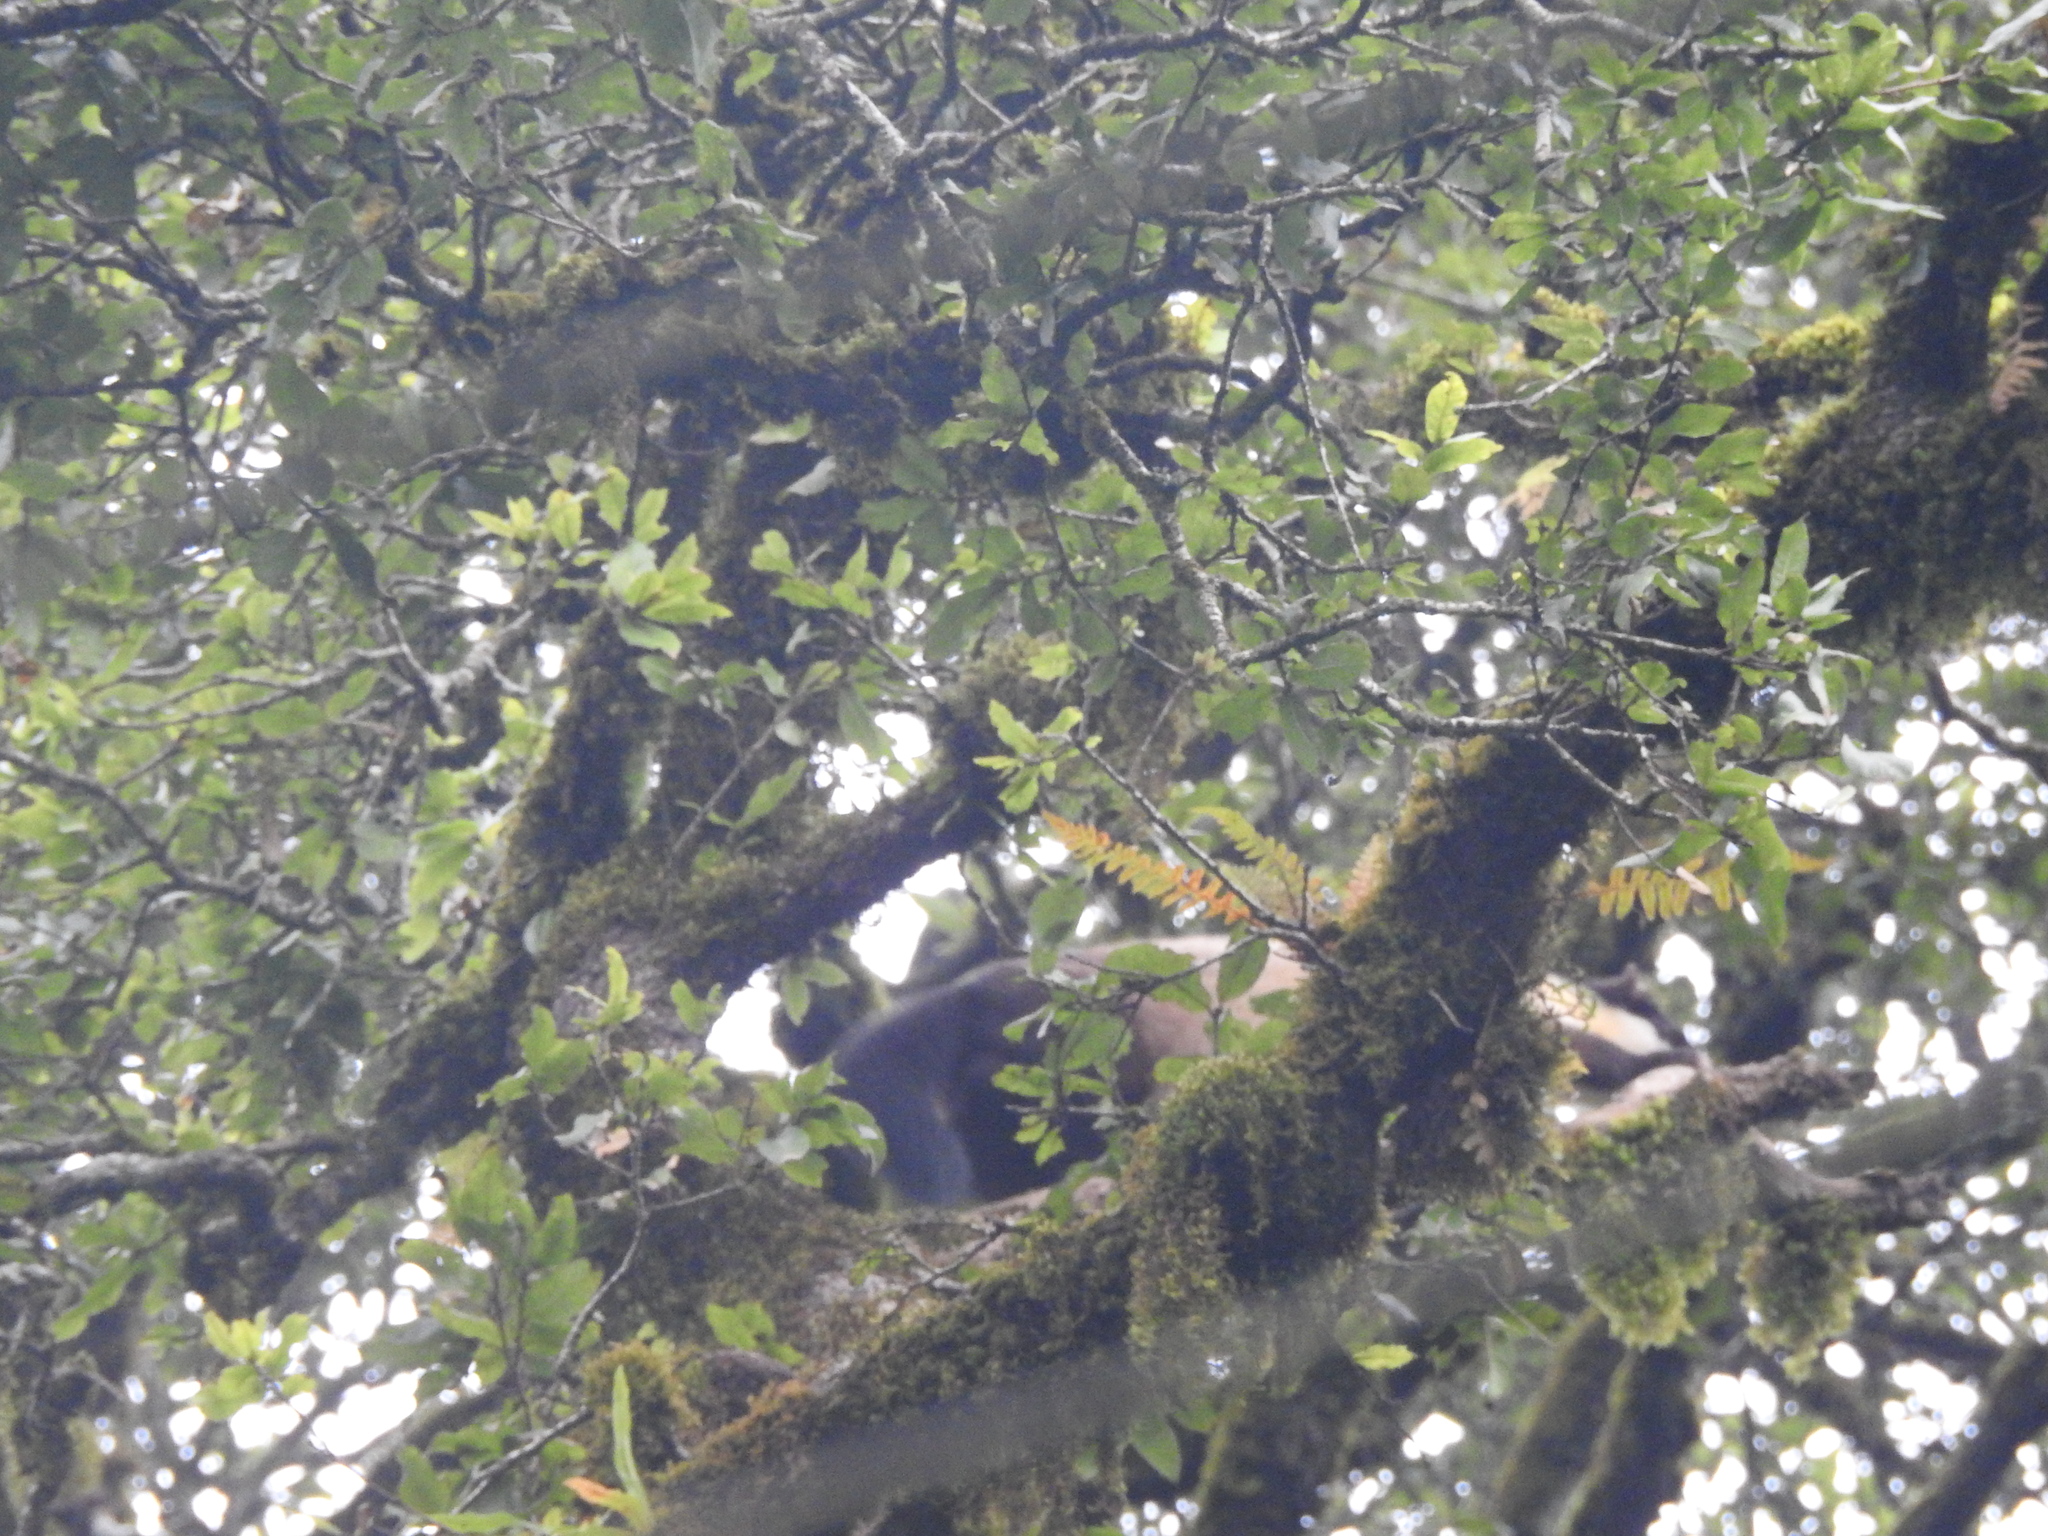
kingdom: Animalia
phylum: Chordata
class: Mammalia
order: Carnivora
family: Mustelidae
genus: Martes
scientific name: Martes flavigula
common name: Yellow-throated marten
